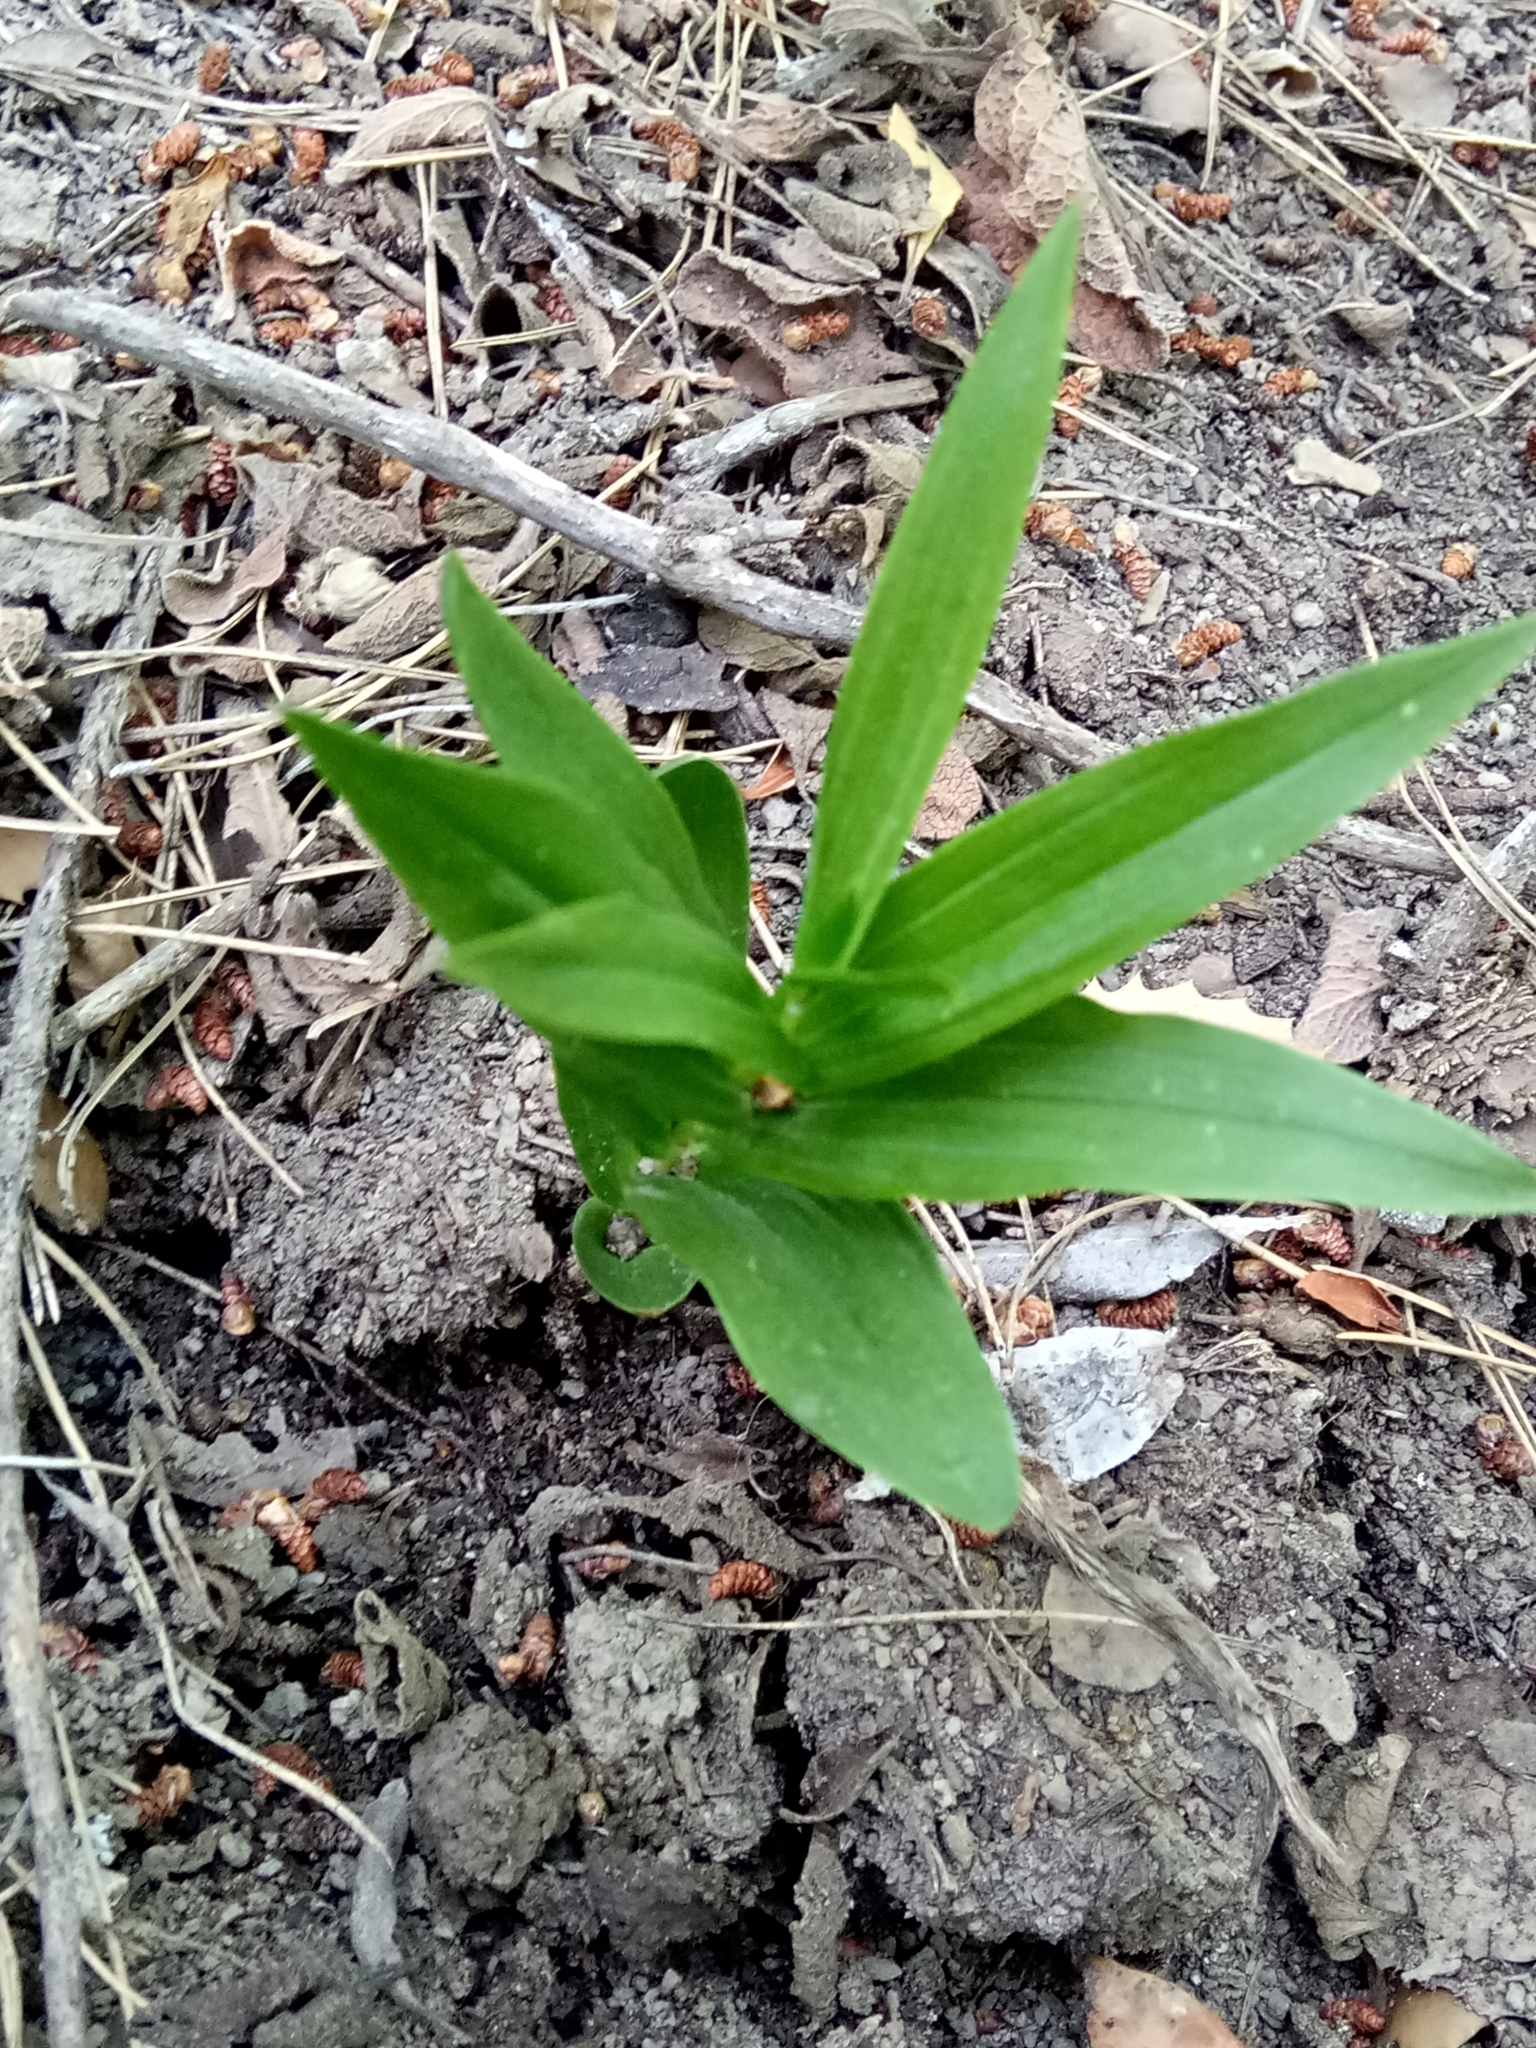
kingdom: Plantae
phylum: Tracheophyta
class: Liliopsida
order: Asparagales
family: Orchidaceae
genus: Cephalanthera
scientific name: Cephalanthera longifolia
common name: Narrow-leaved helleborine
